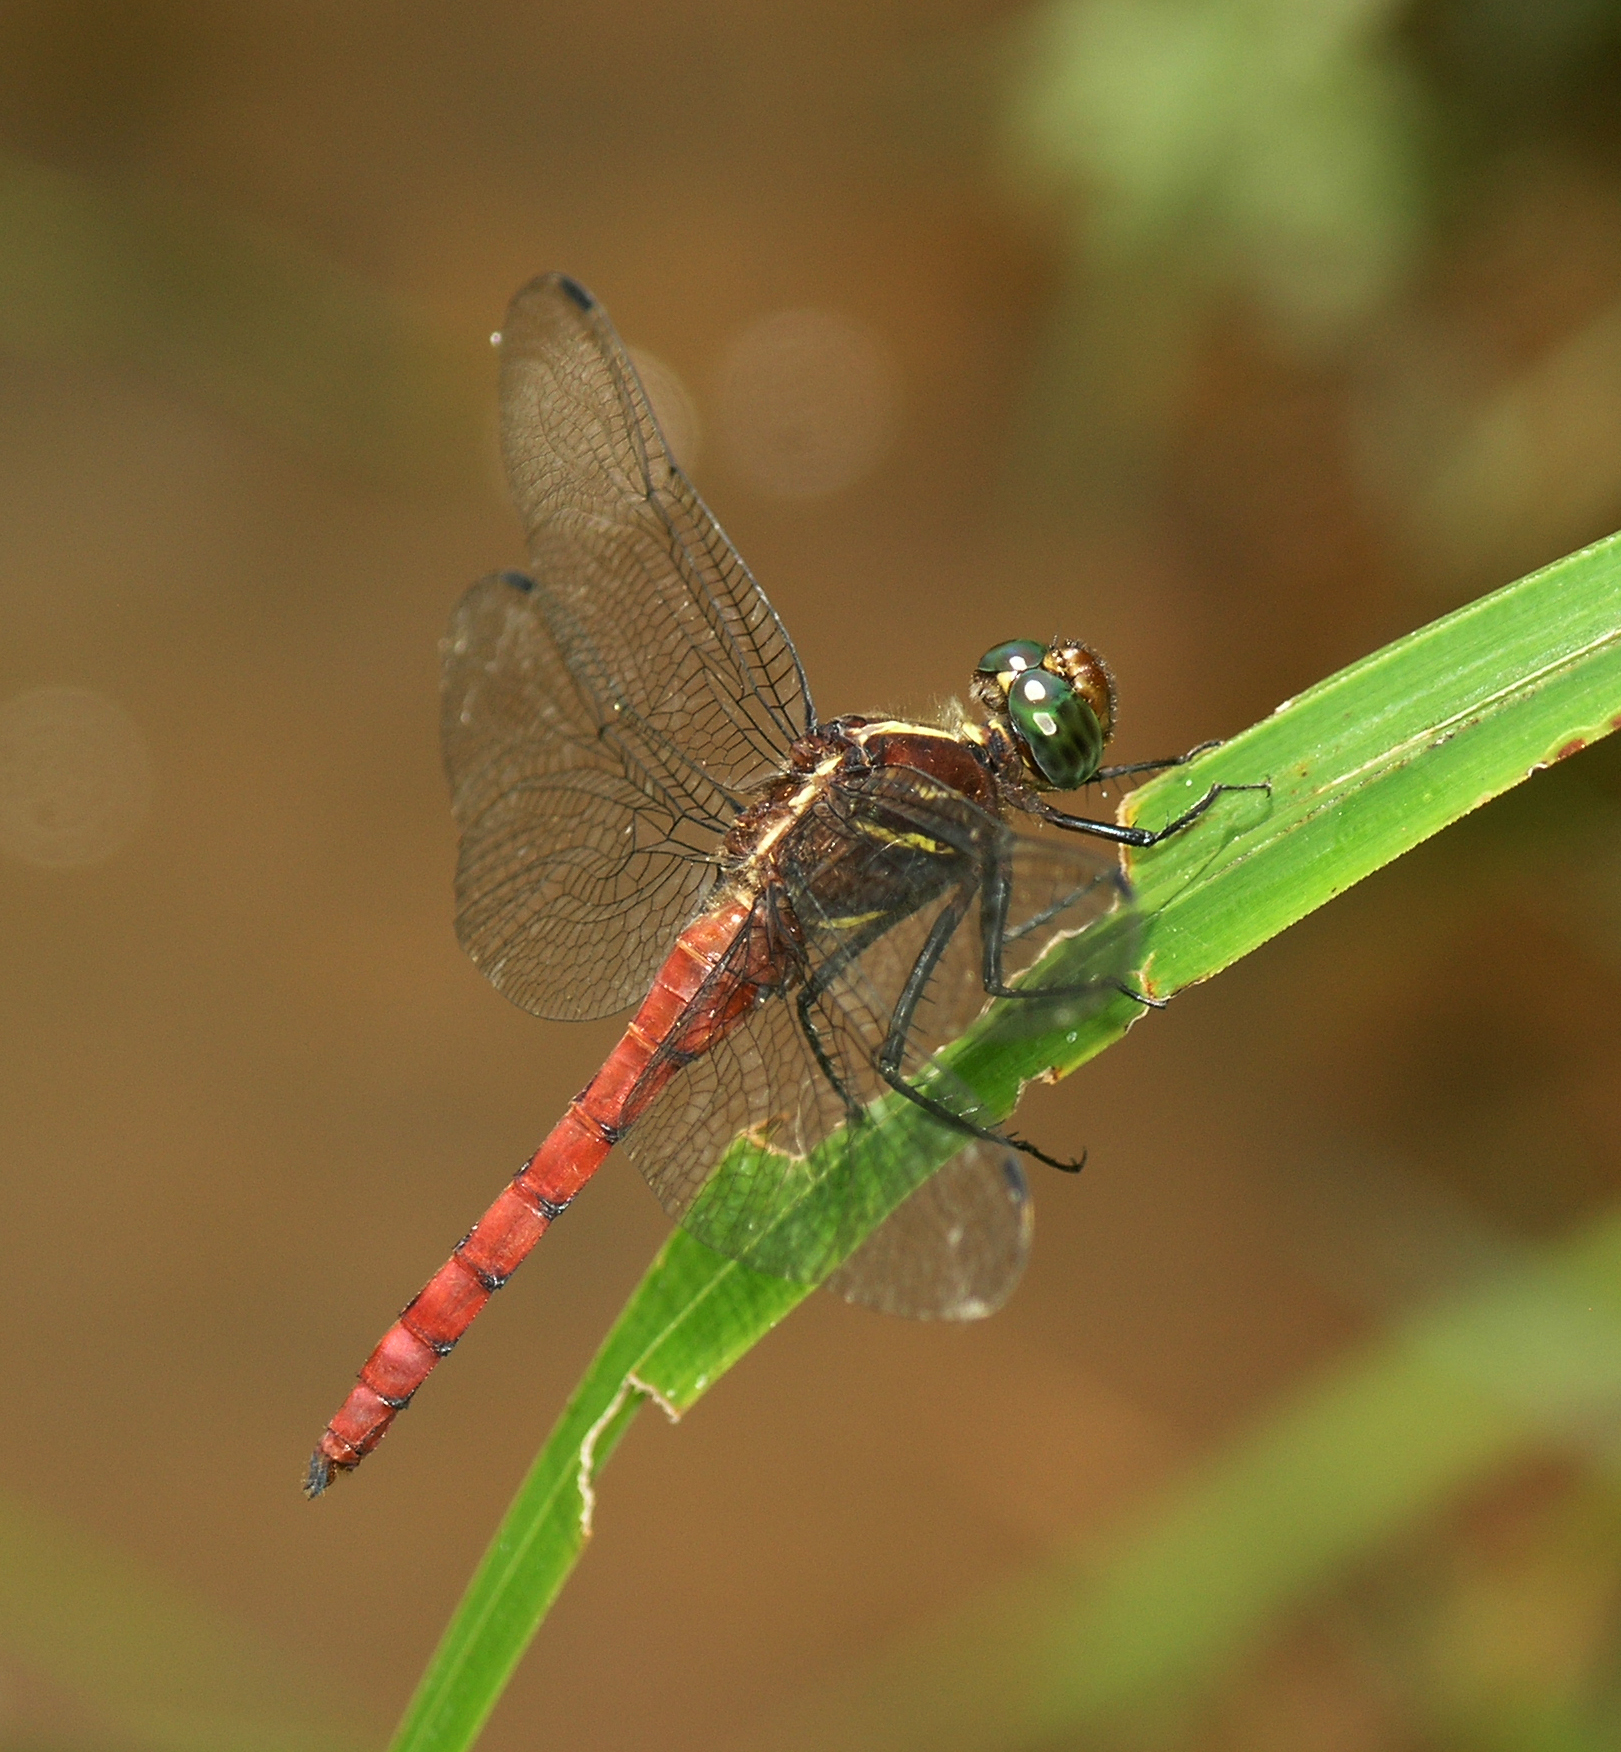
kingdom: Animalia
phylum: Arthropoda
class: Insecta
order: Odonata
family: Libellulidae
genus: Onychothemis
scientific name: Onychothemis culminicola
